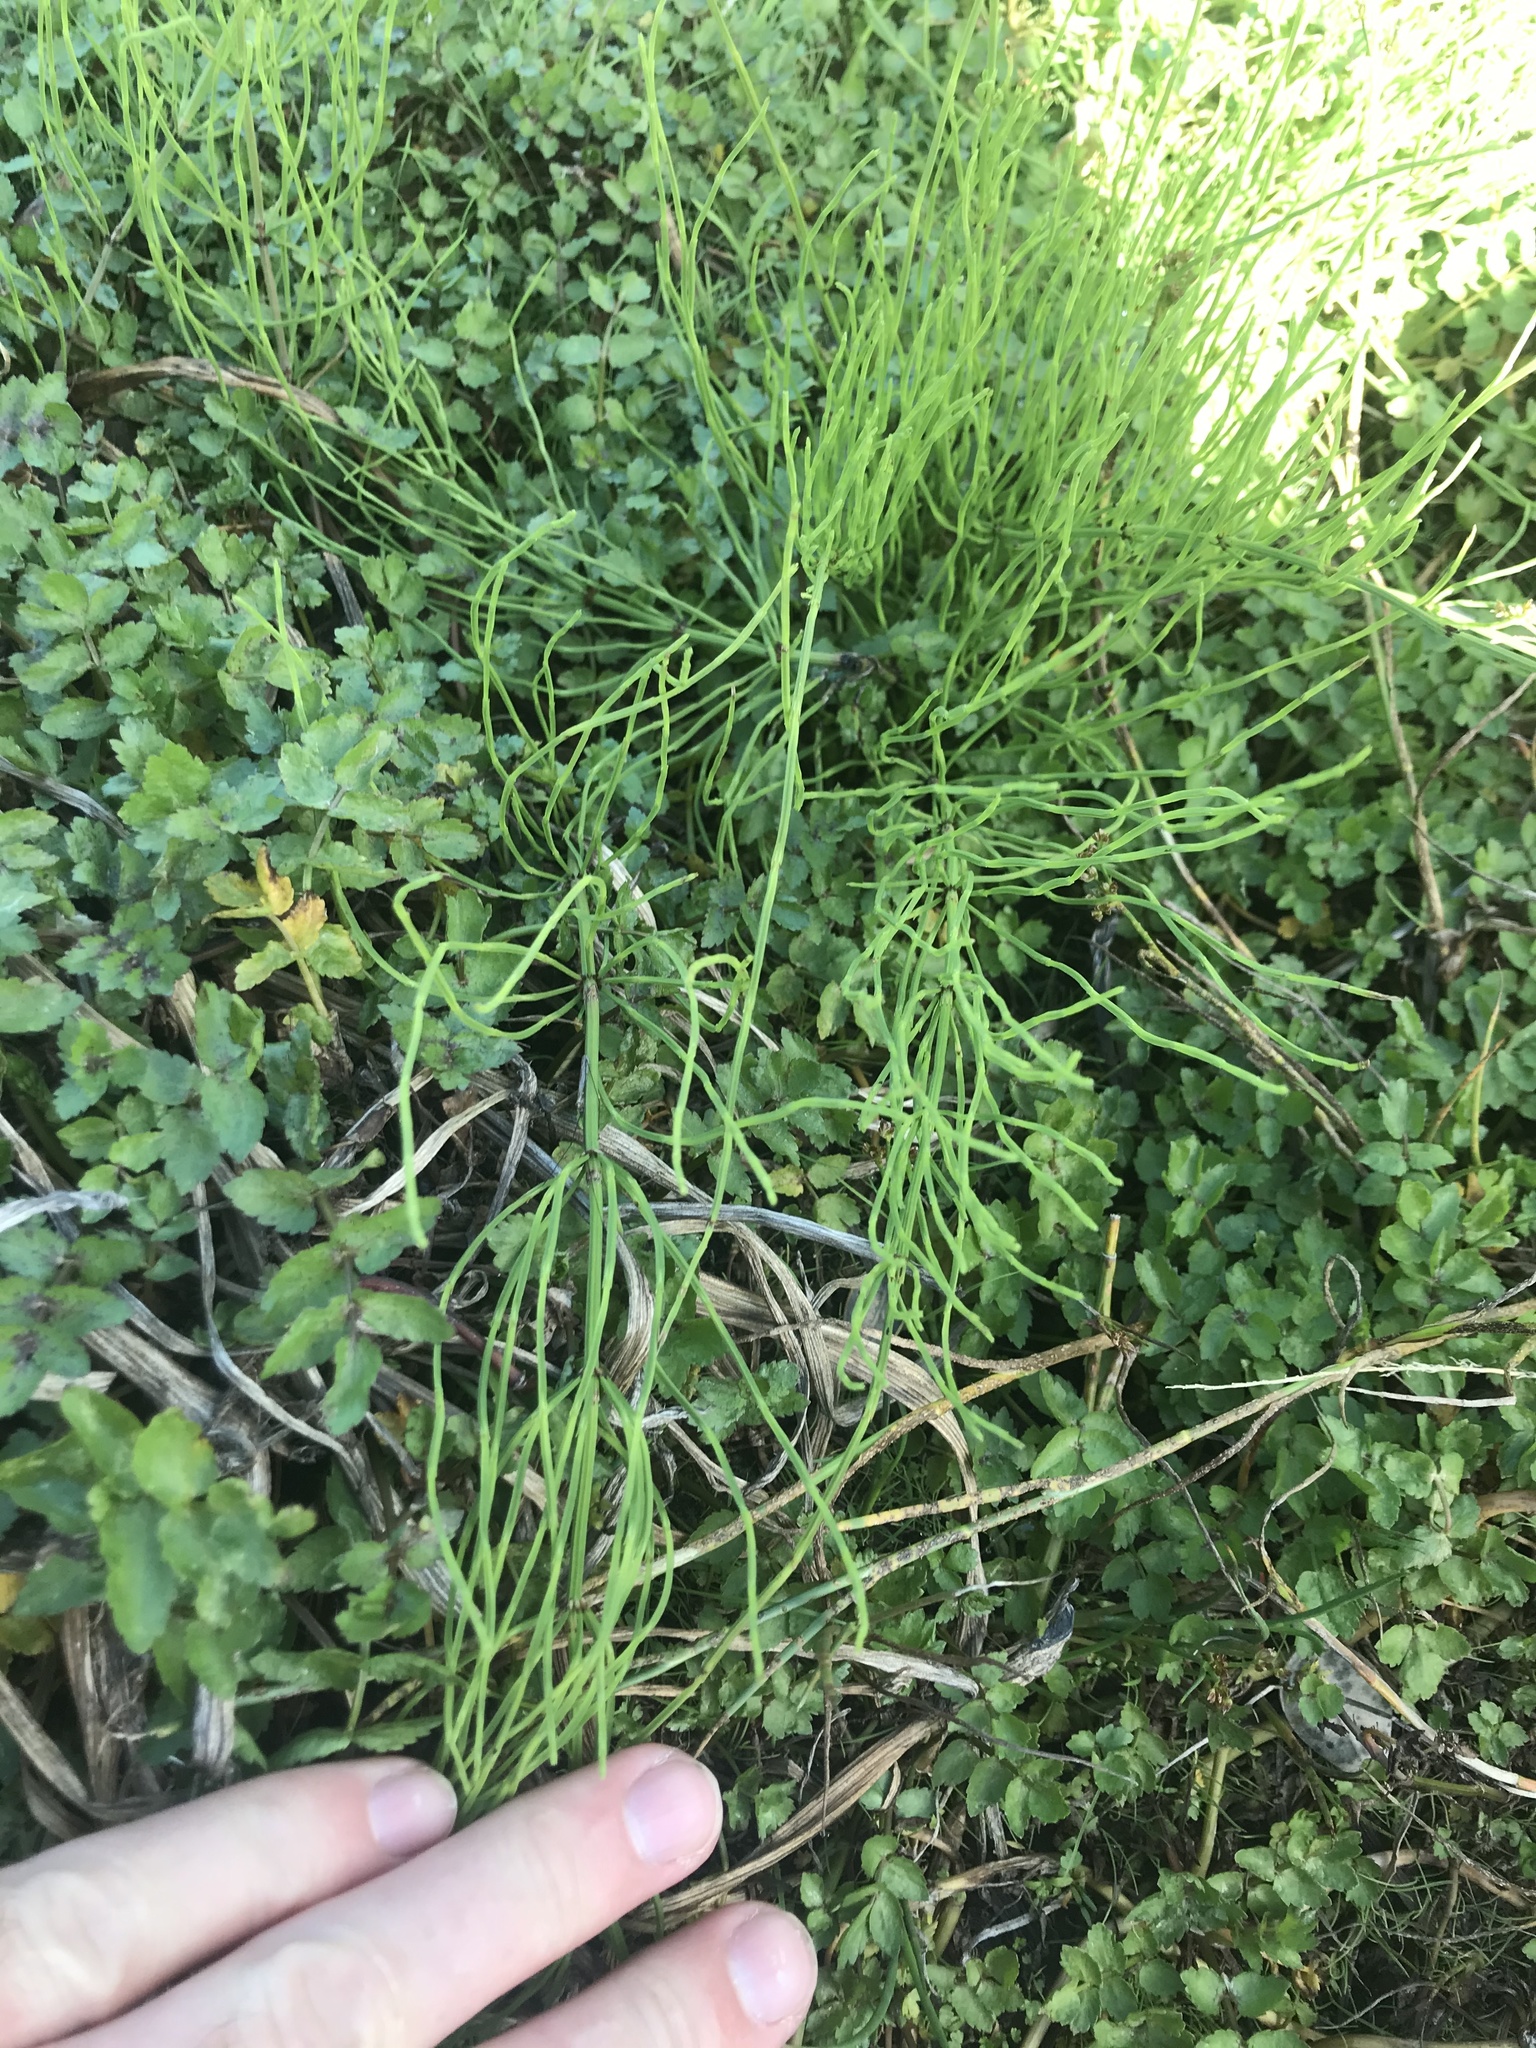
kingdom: Plantae
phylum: Tracheophyta
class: Polypodiopsida
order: Equisetales
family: Equisetaceae
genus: Equisetum
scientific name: Equisetum arvense
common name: Field horsetail
